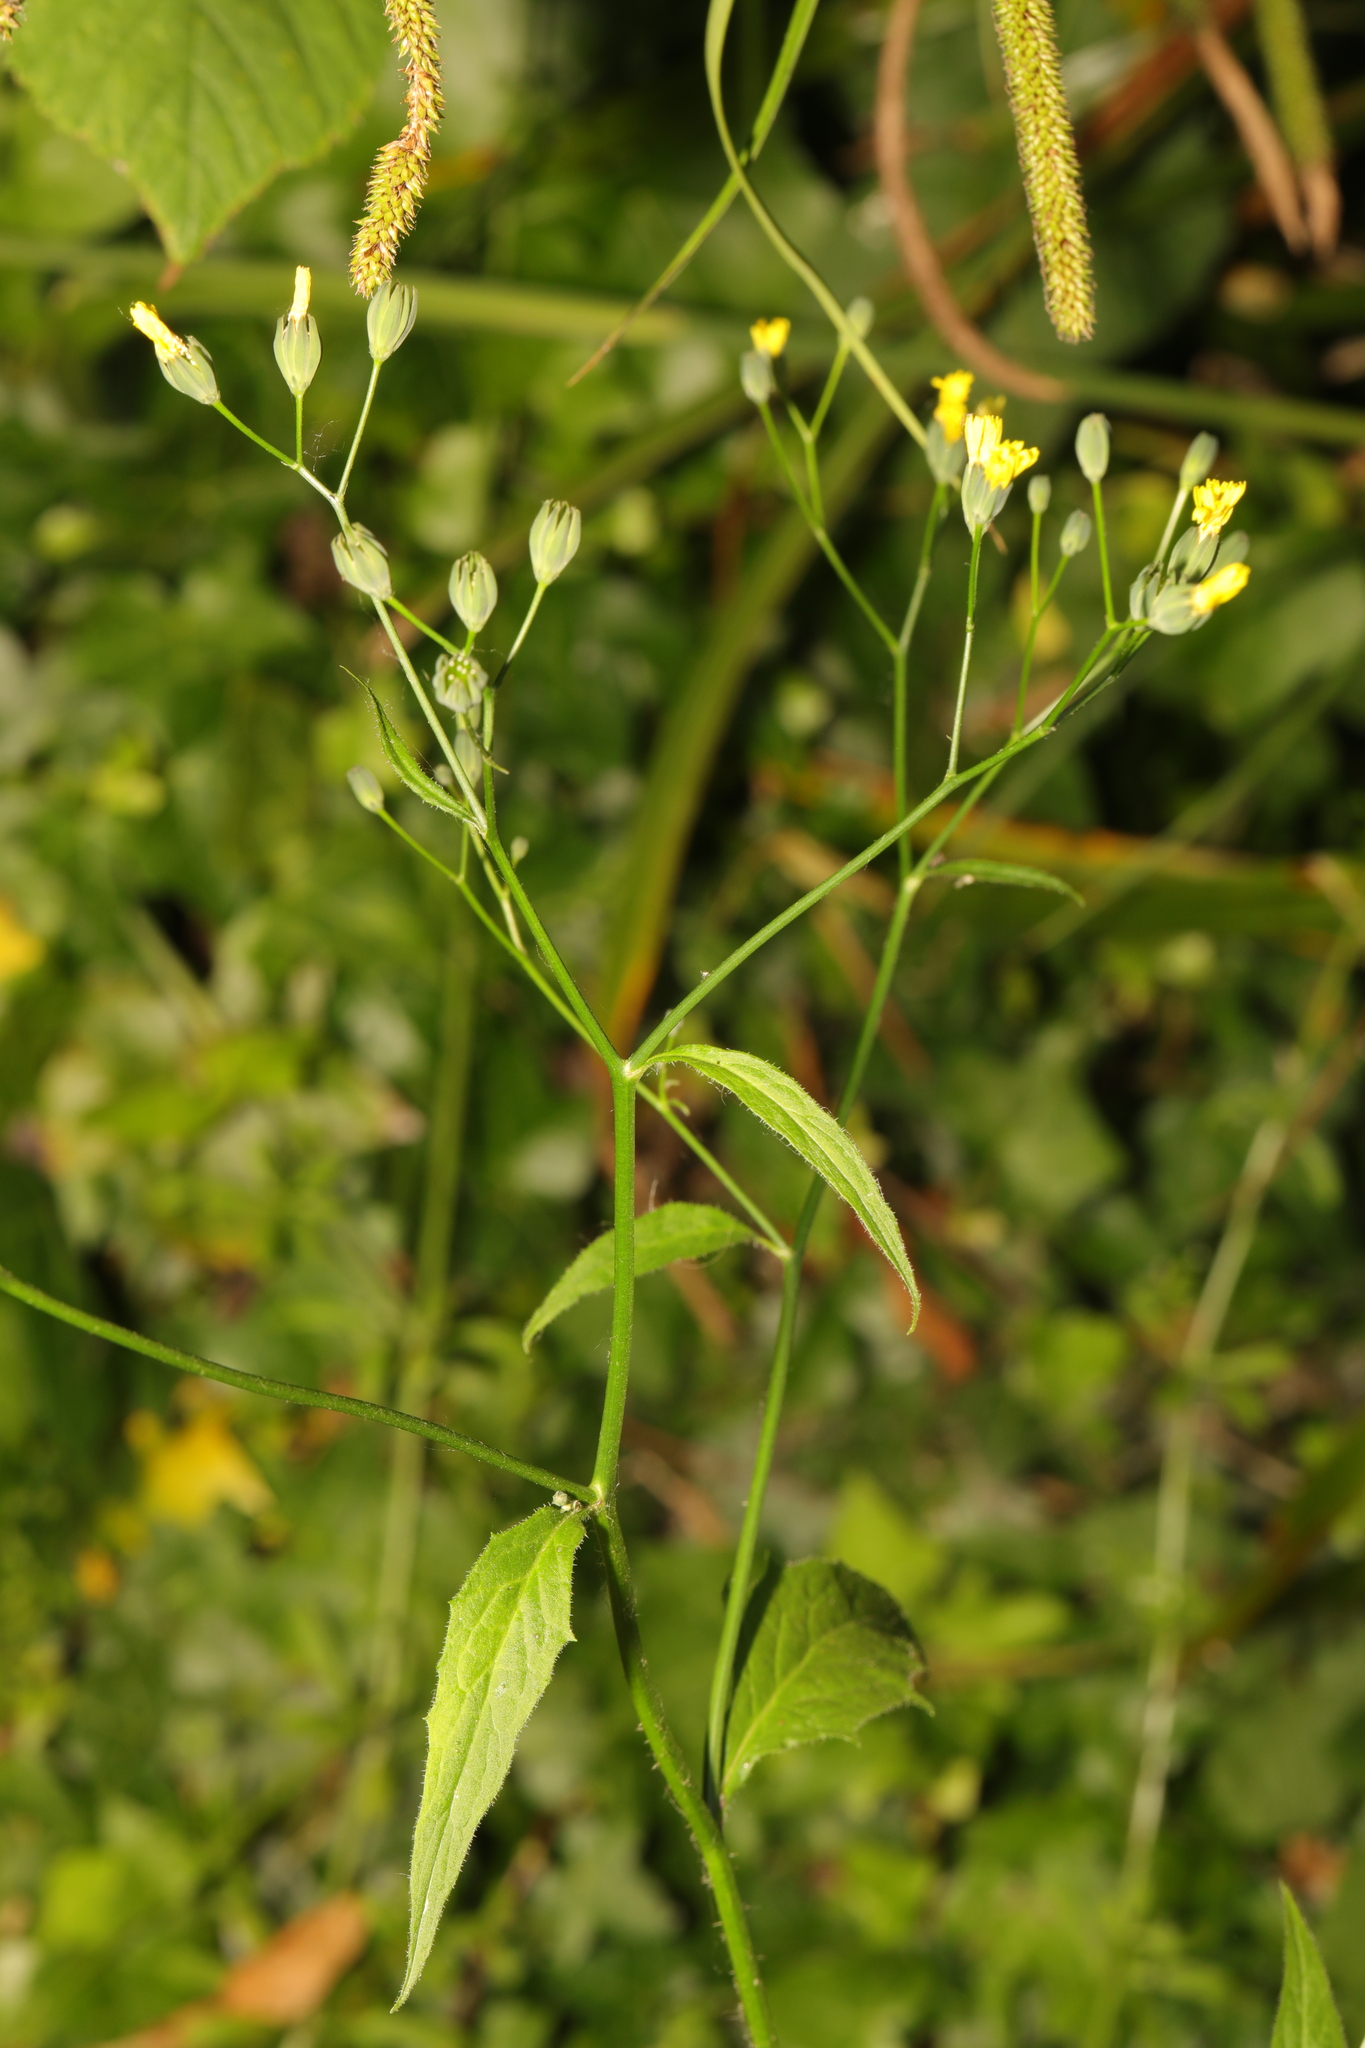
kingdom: Plantae
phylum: Tracheophyta
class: Magnoliopsida
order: Asterales
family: Asteraceae
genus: Lapsana
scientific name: Lapsana communis
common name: Nipplewort
